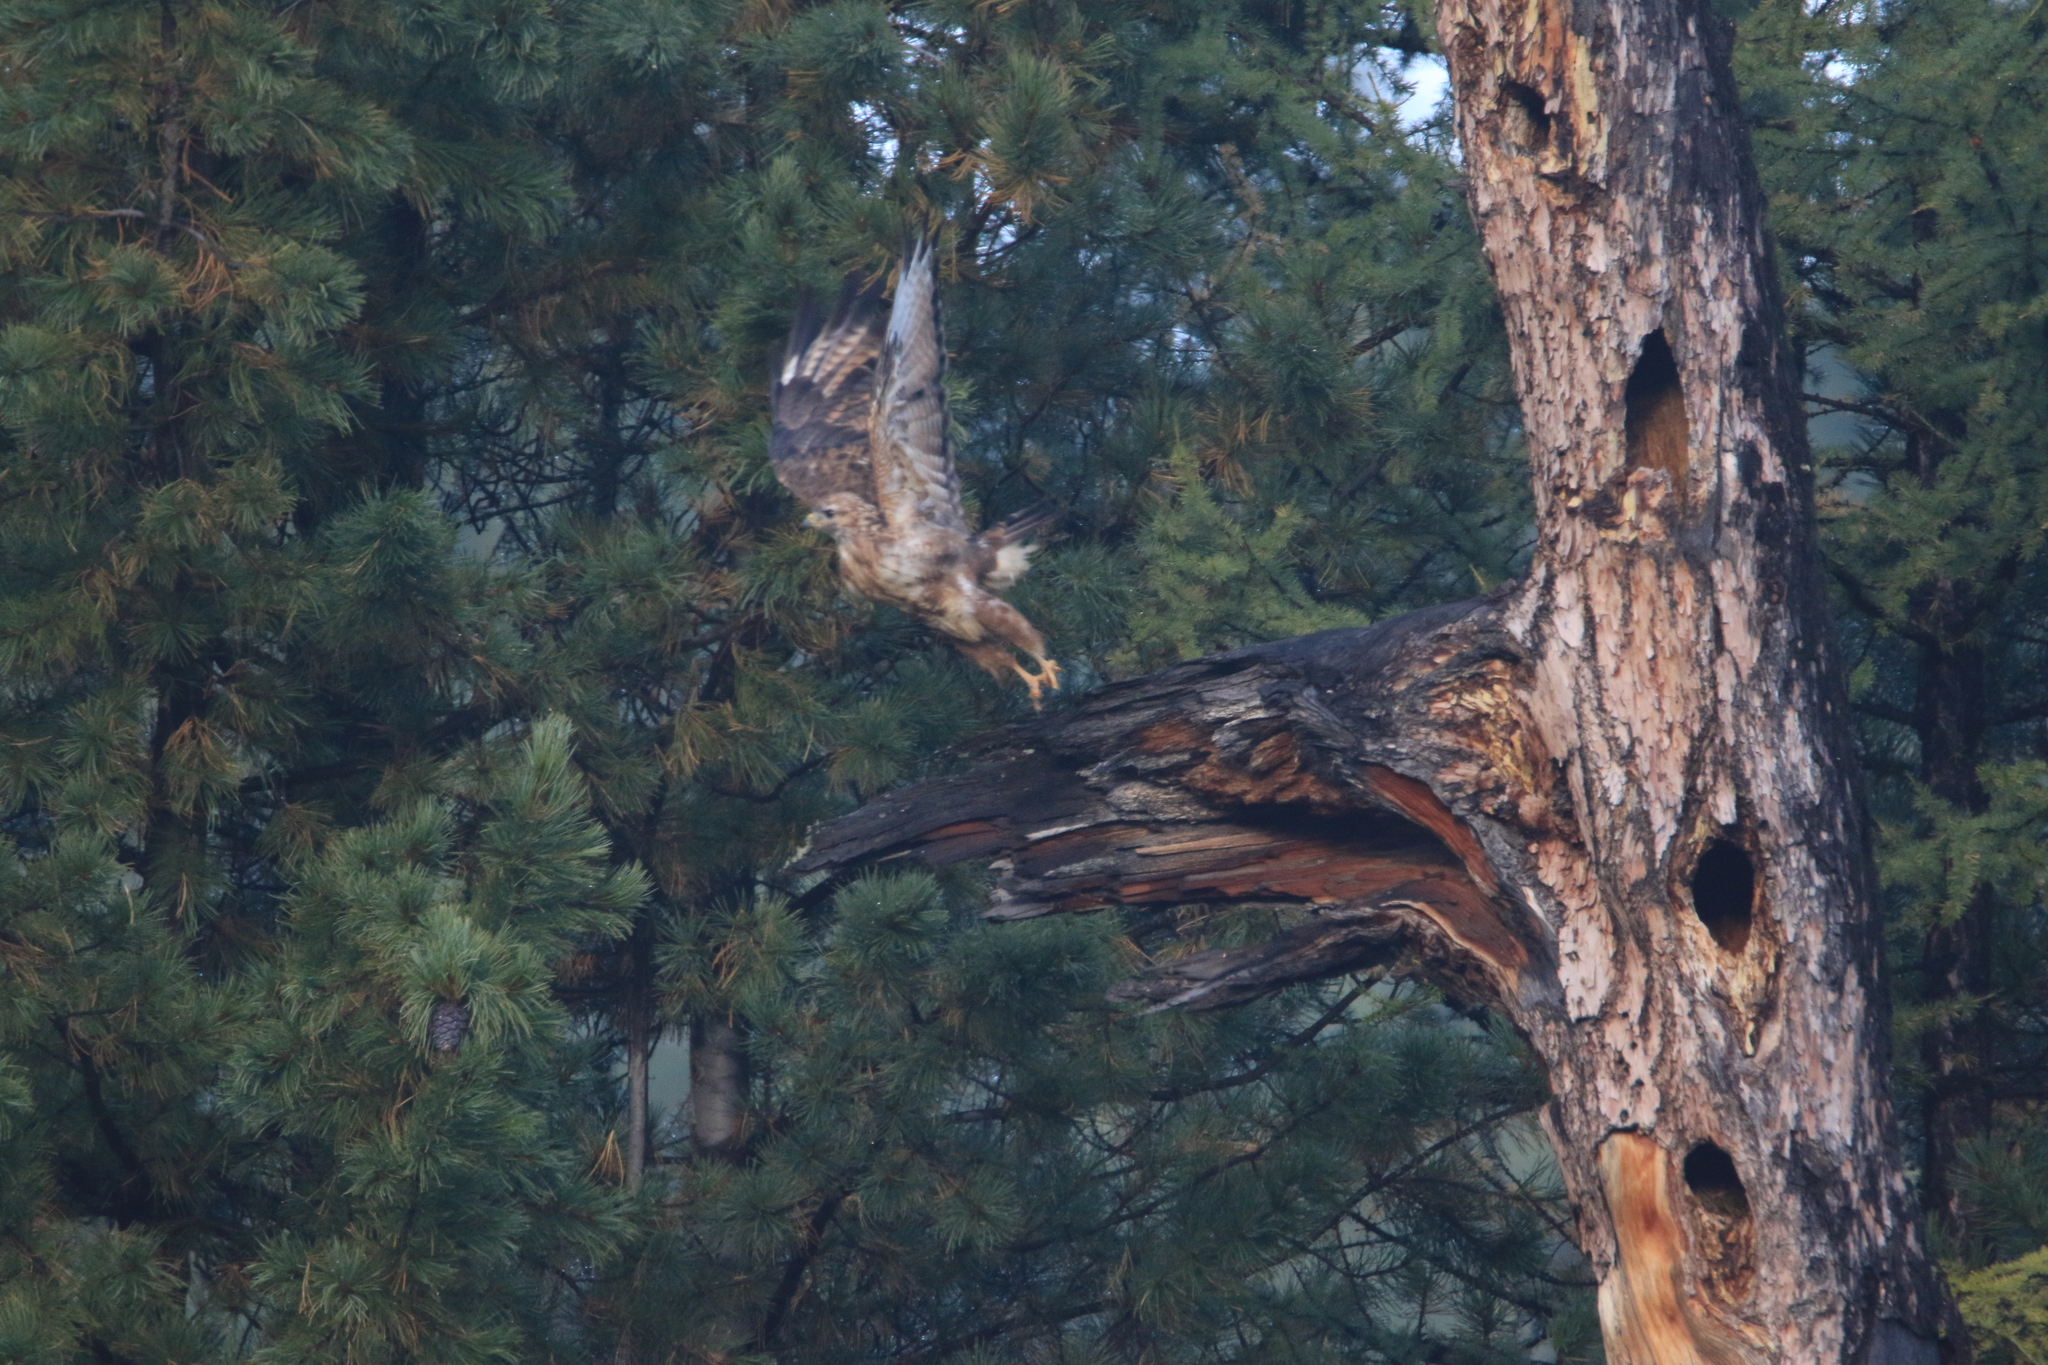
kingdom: Animalia
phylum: Chordata
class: Aves
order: Accipitriformes
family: Accipitridae
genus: Buteo
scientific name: Buteo japonicus
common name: Eastern buzzard
